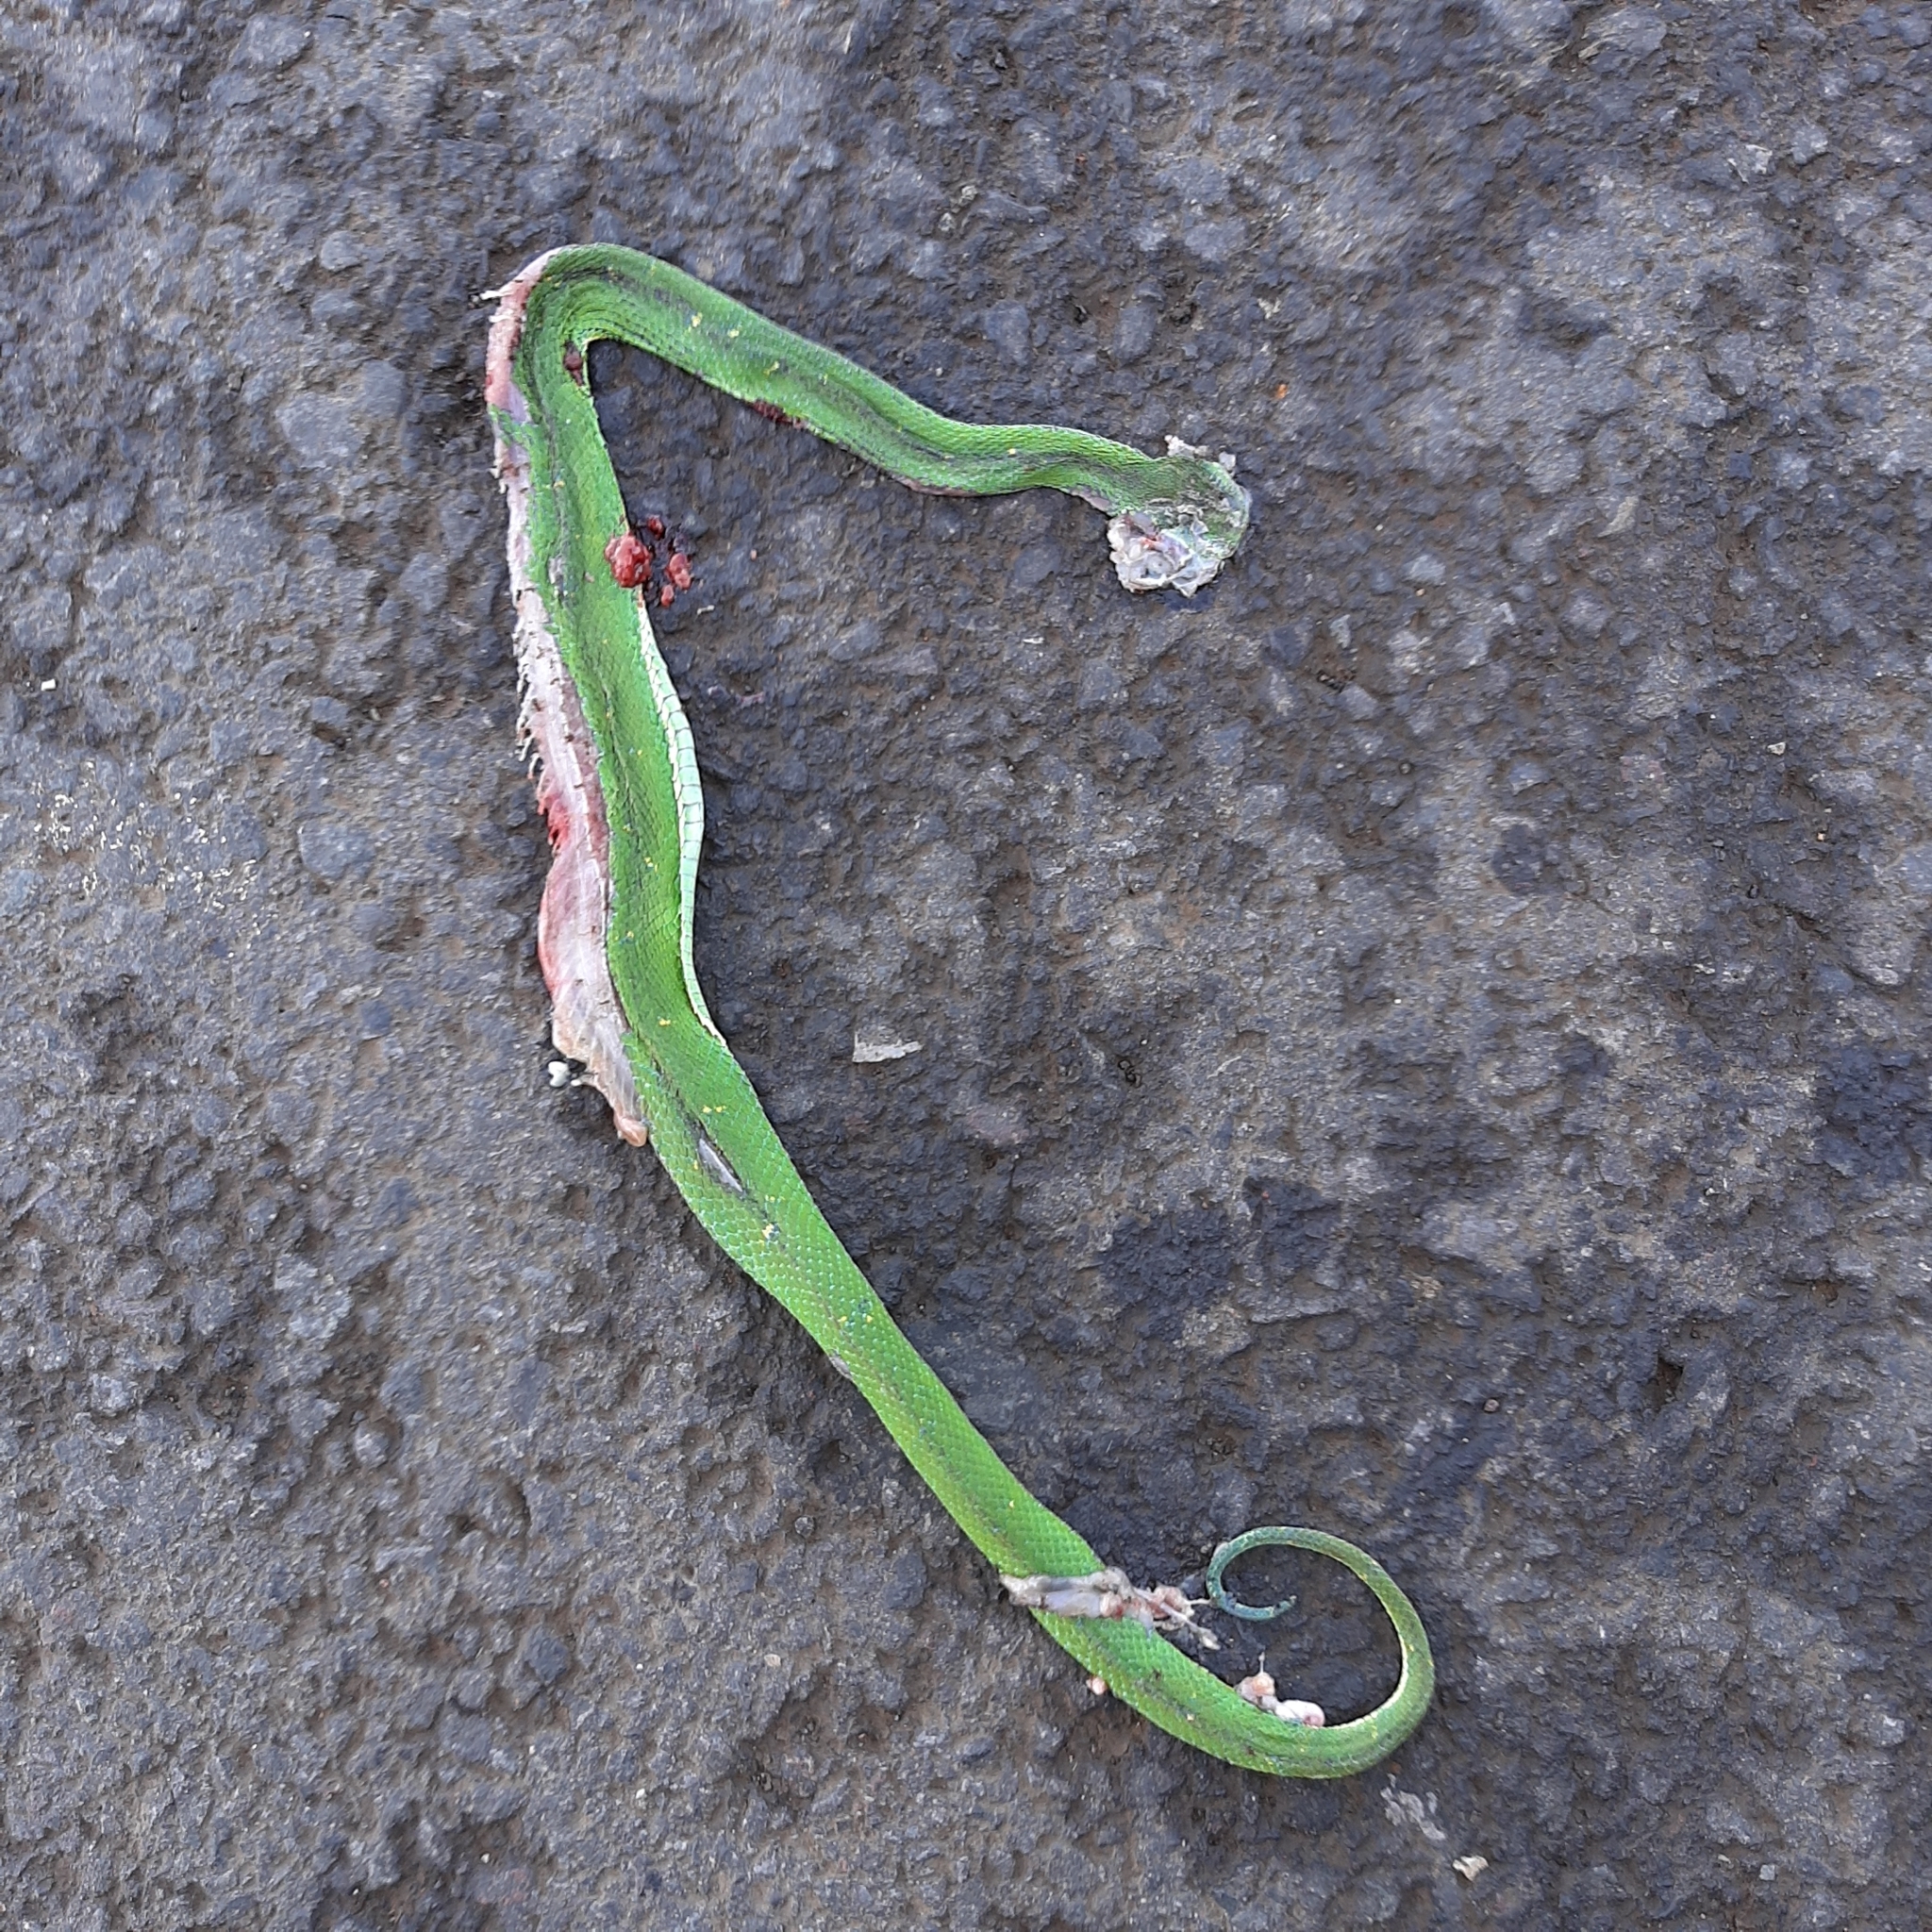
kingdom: Animalia
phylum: Chordata
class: Squamata
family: Viperidae
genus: Bothriechis
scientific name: Bothriechis lateralis
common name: Coffee palm viper
